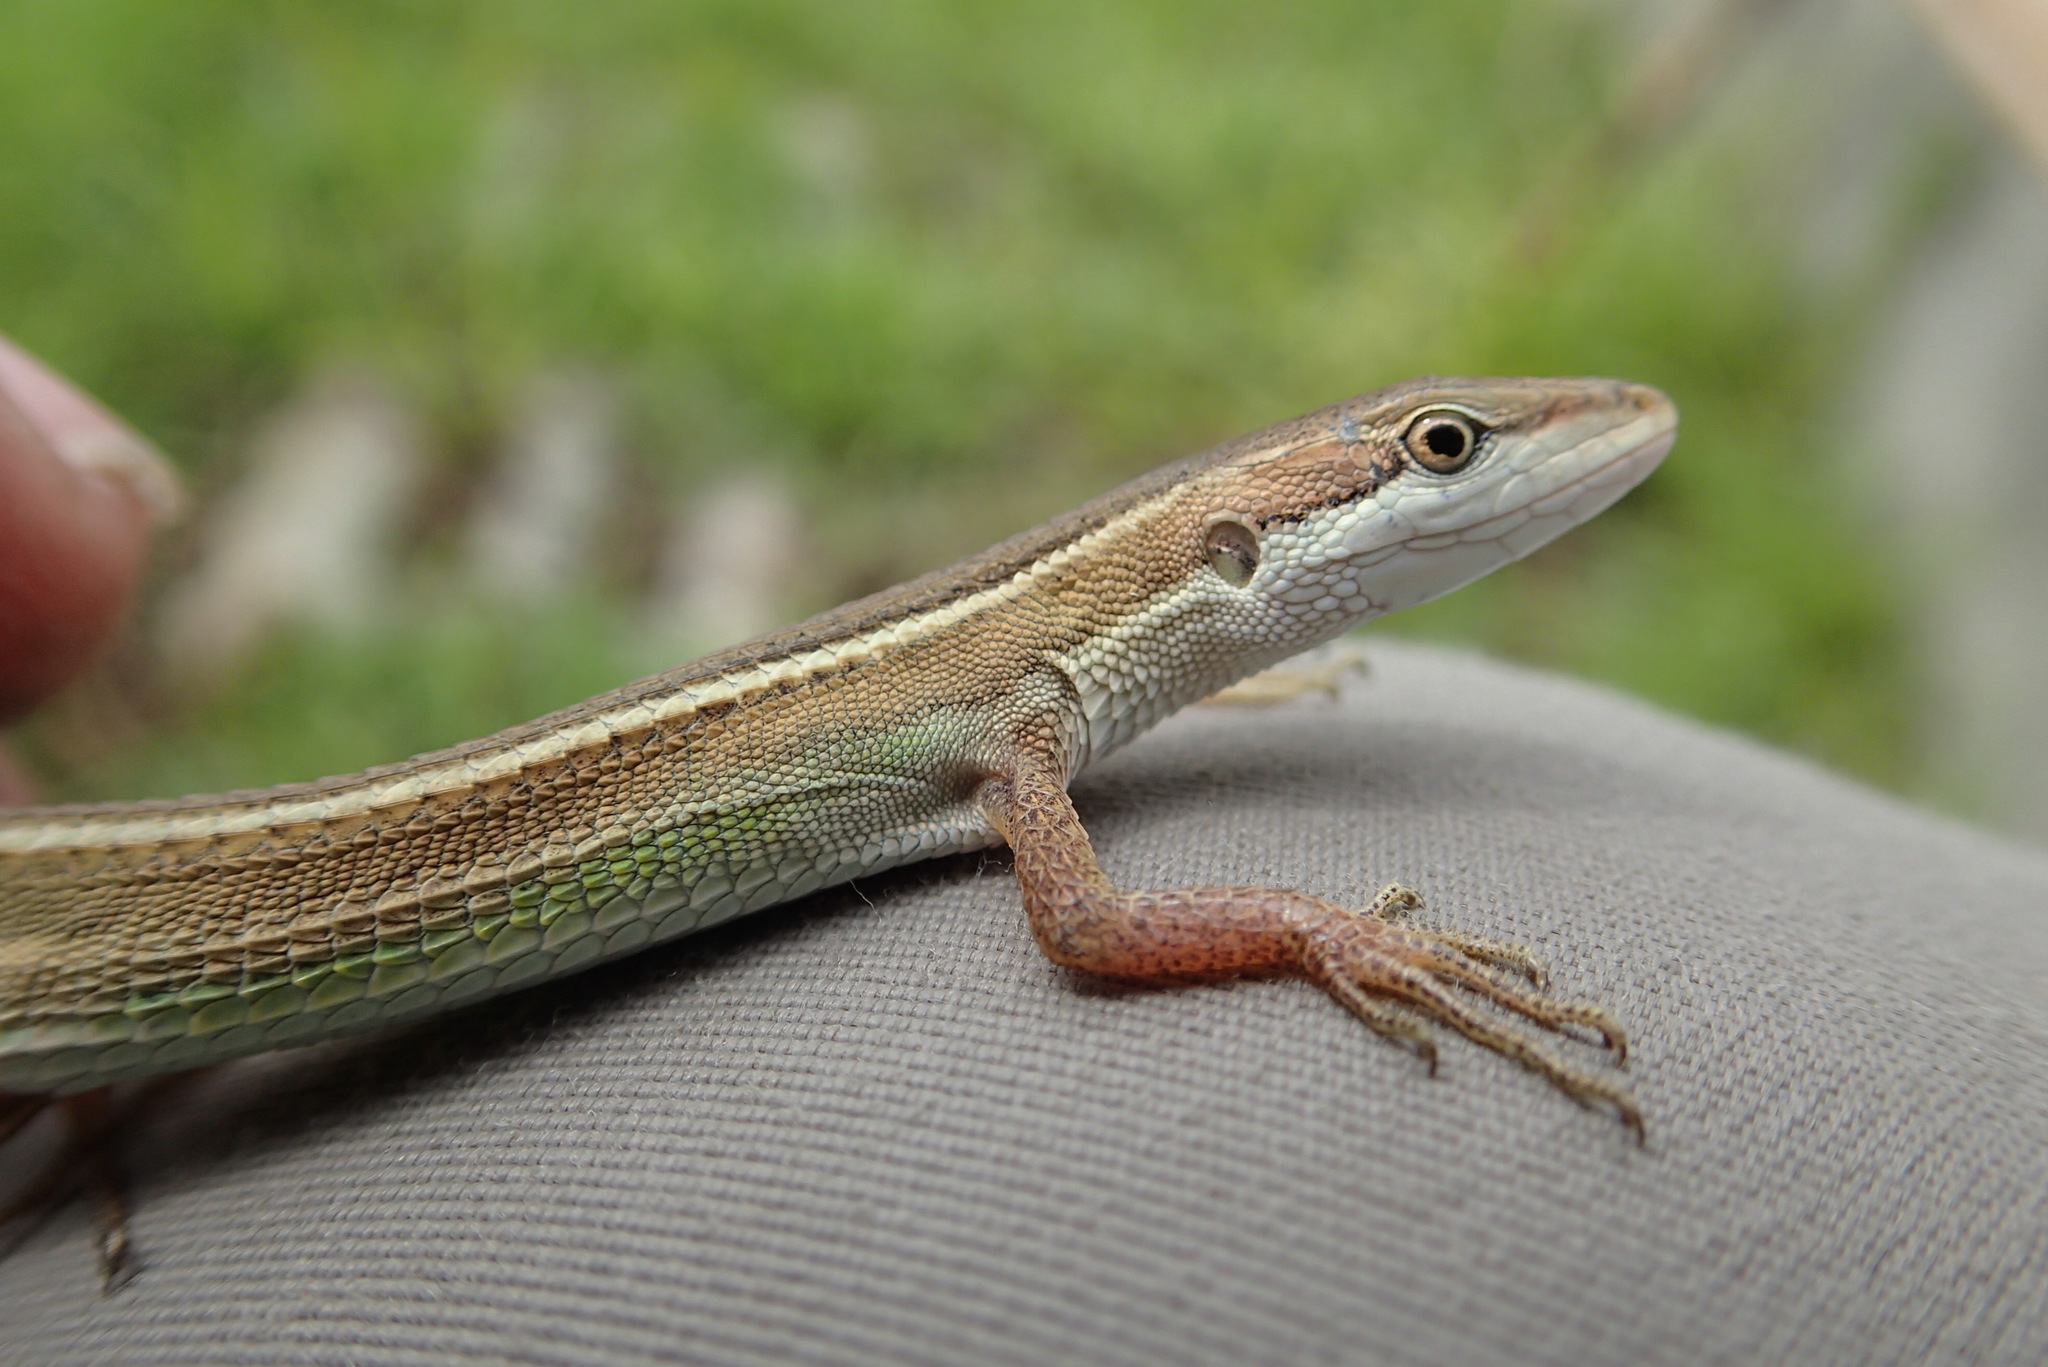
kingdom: Animalia
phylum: Chordata
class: Squamata
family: Lacertidae
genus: Takydromus
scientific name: Takydromus stejnegeri
